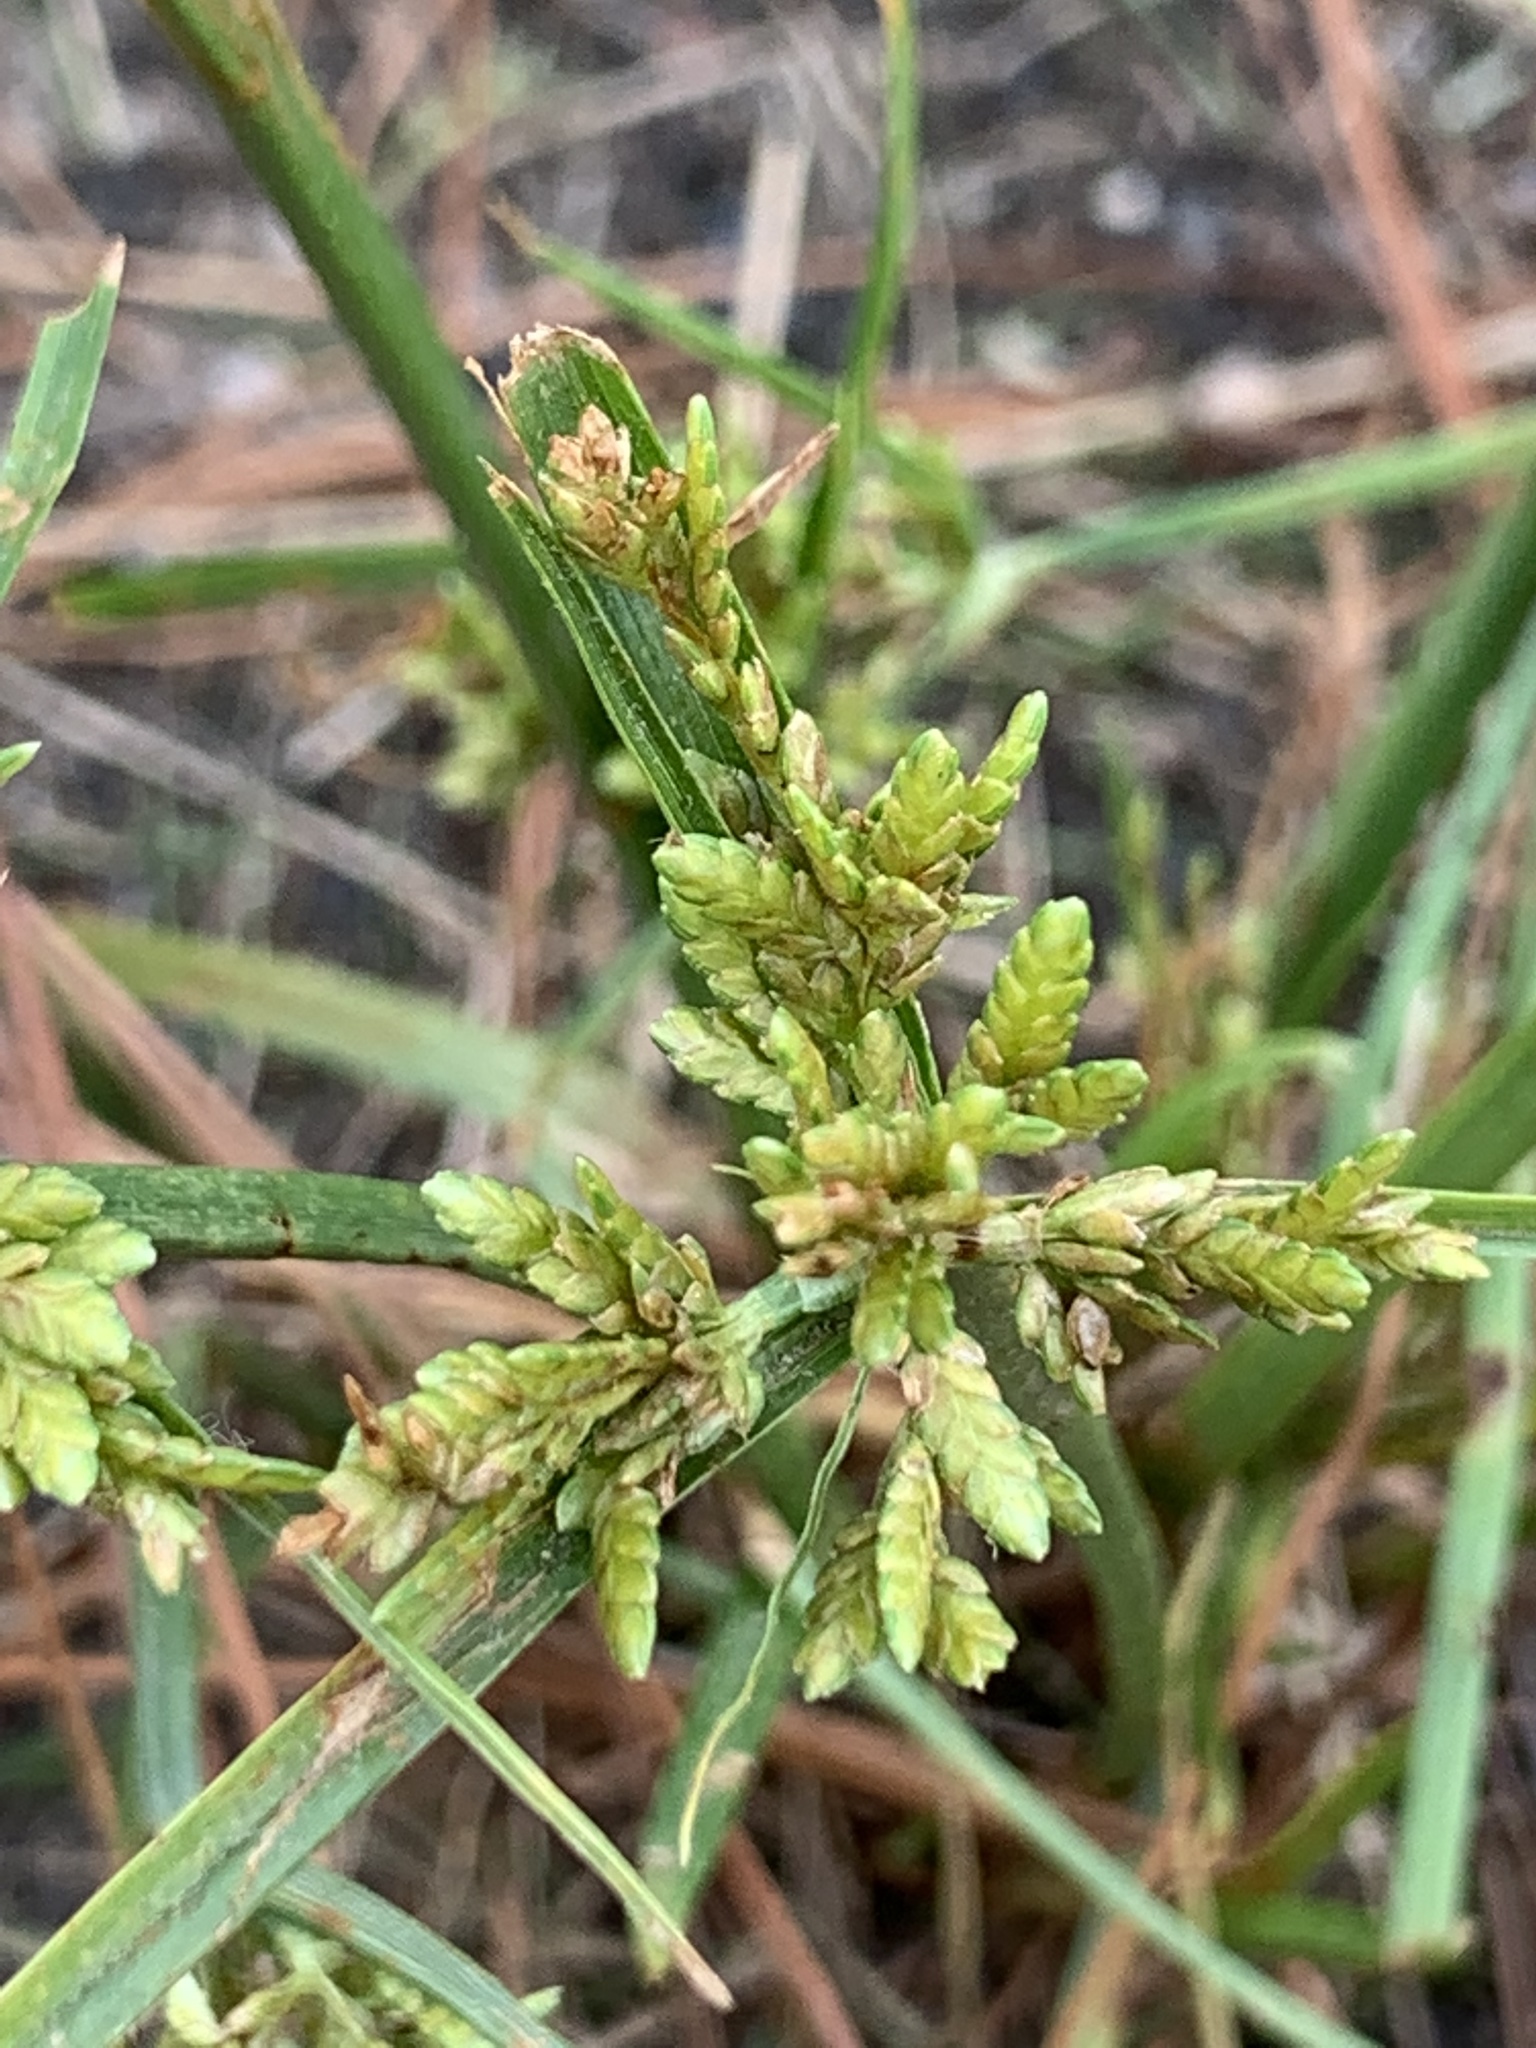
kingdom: Plantae
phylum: Tracheophyta
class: Liliopsida
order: Poales
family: Cyperaceae
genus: Cyperus
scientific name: Cyperus iria
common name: Ricefield flatsedge
